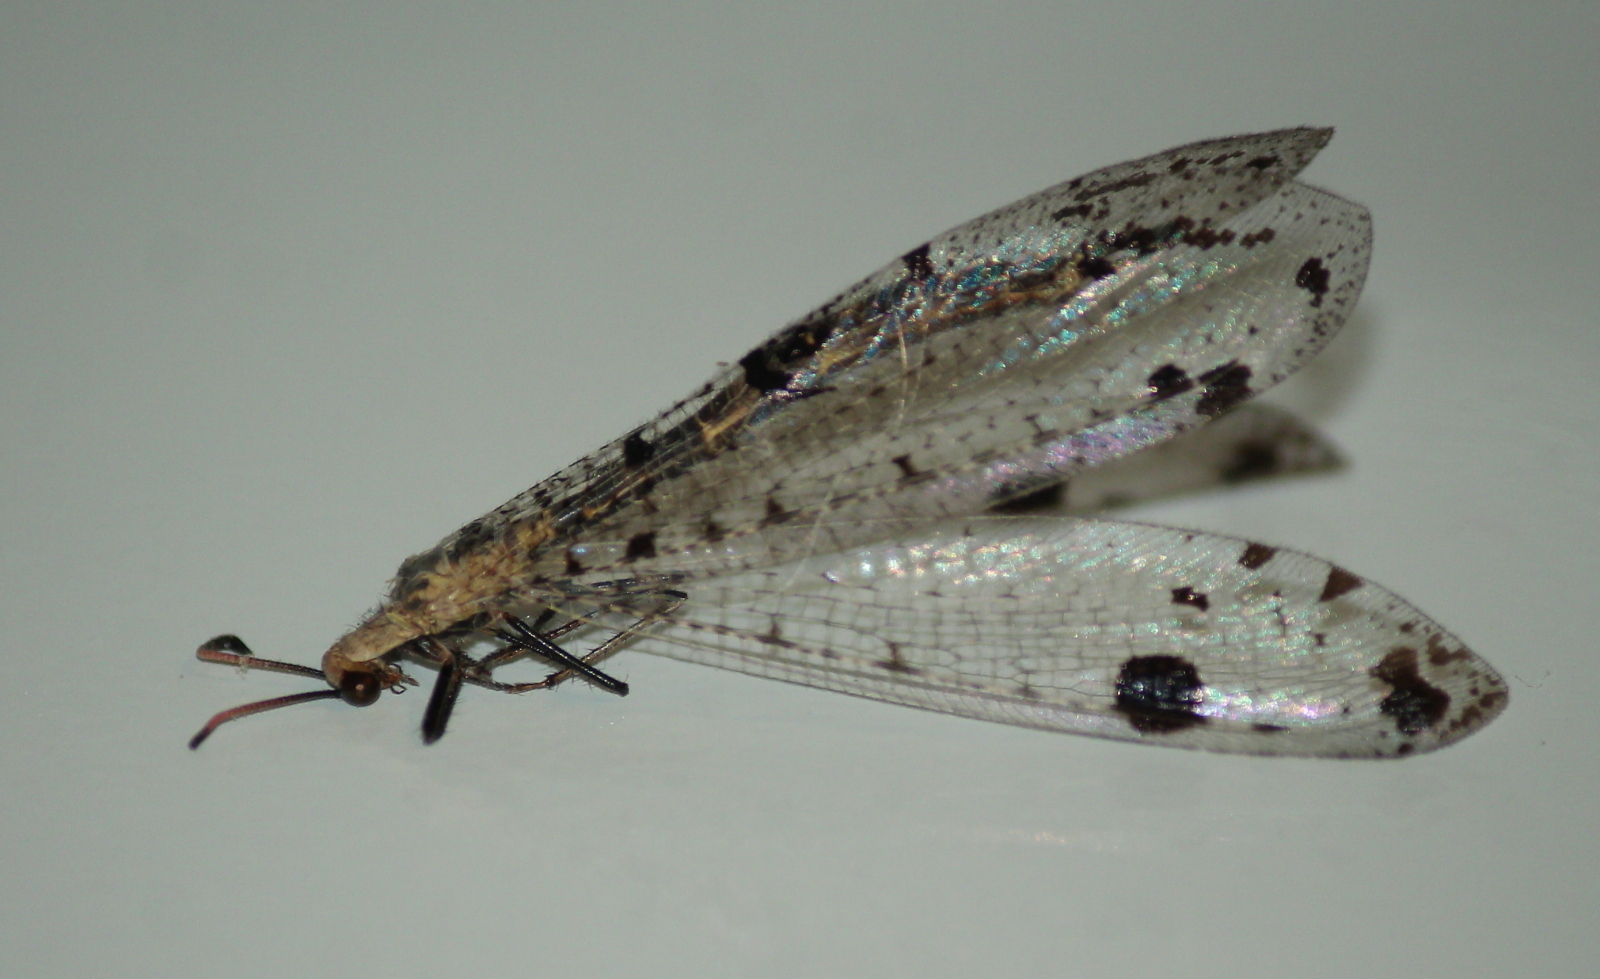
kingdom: Animalia
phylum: Arthropoda
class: Insecta
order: Neuroptera
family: Myrmeleontidae
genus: Dendroleon
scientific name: Dendroleon obsoletus
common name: Eastern spotted-winged antlion
